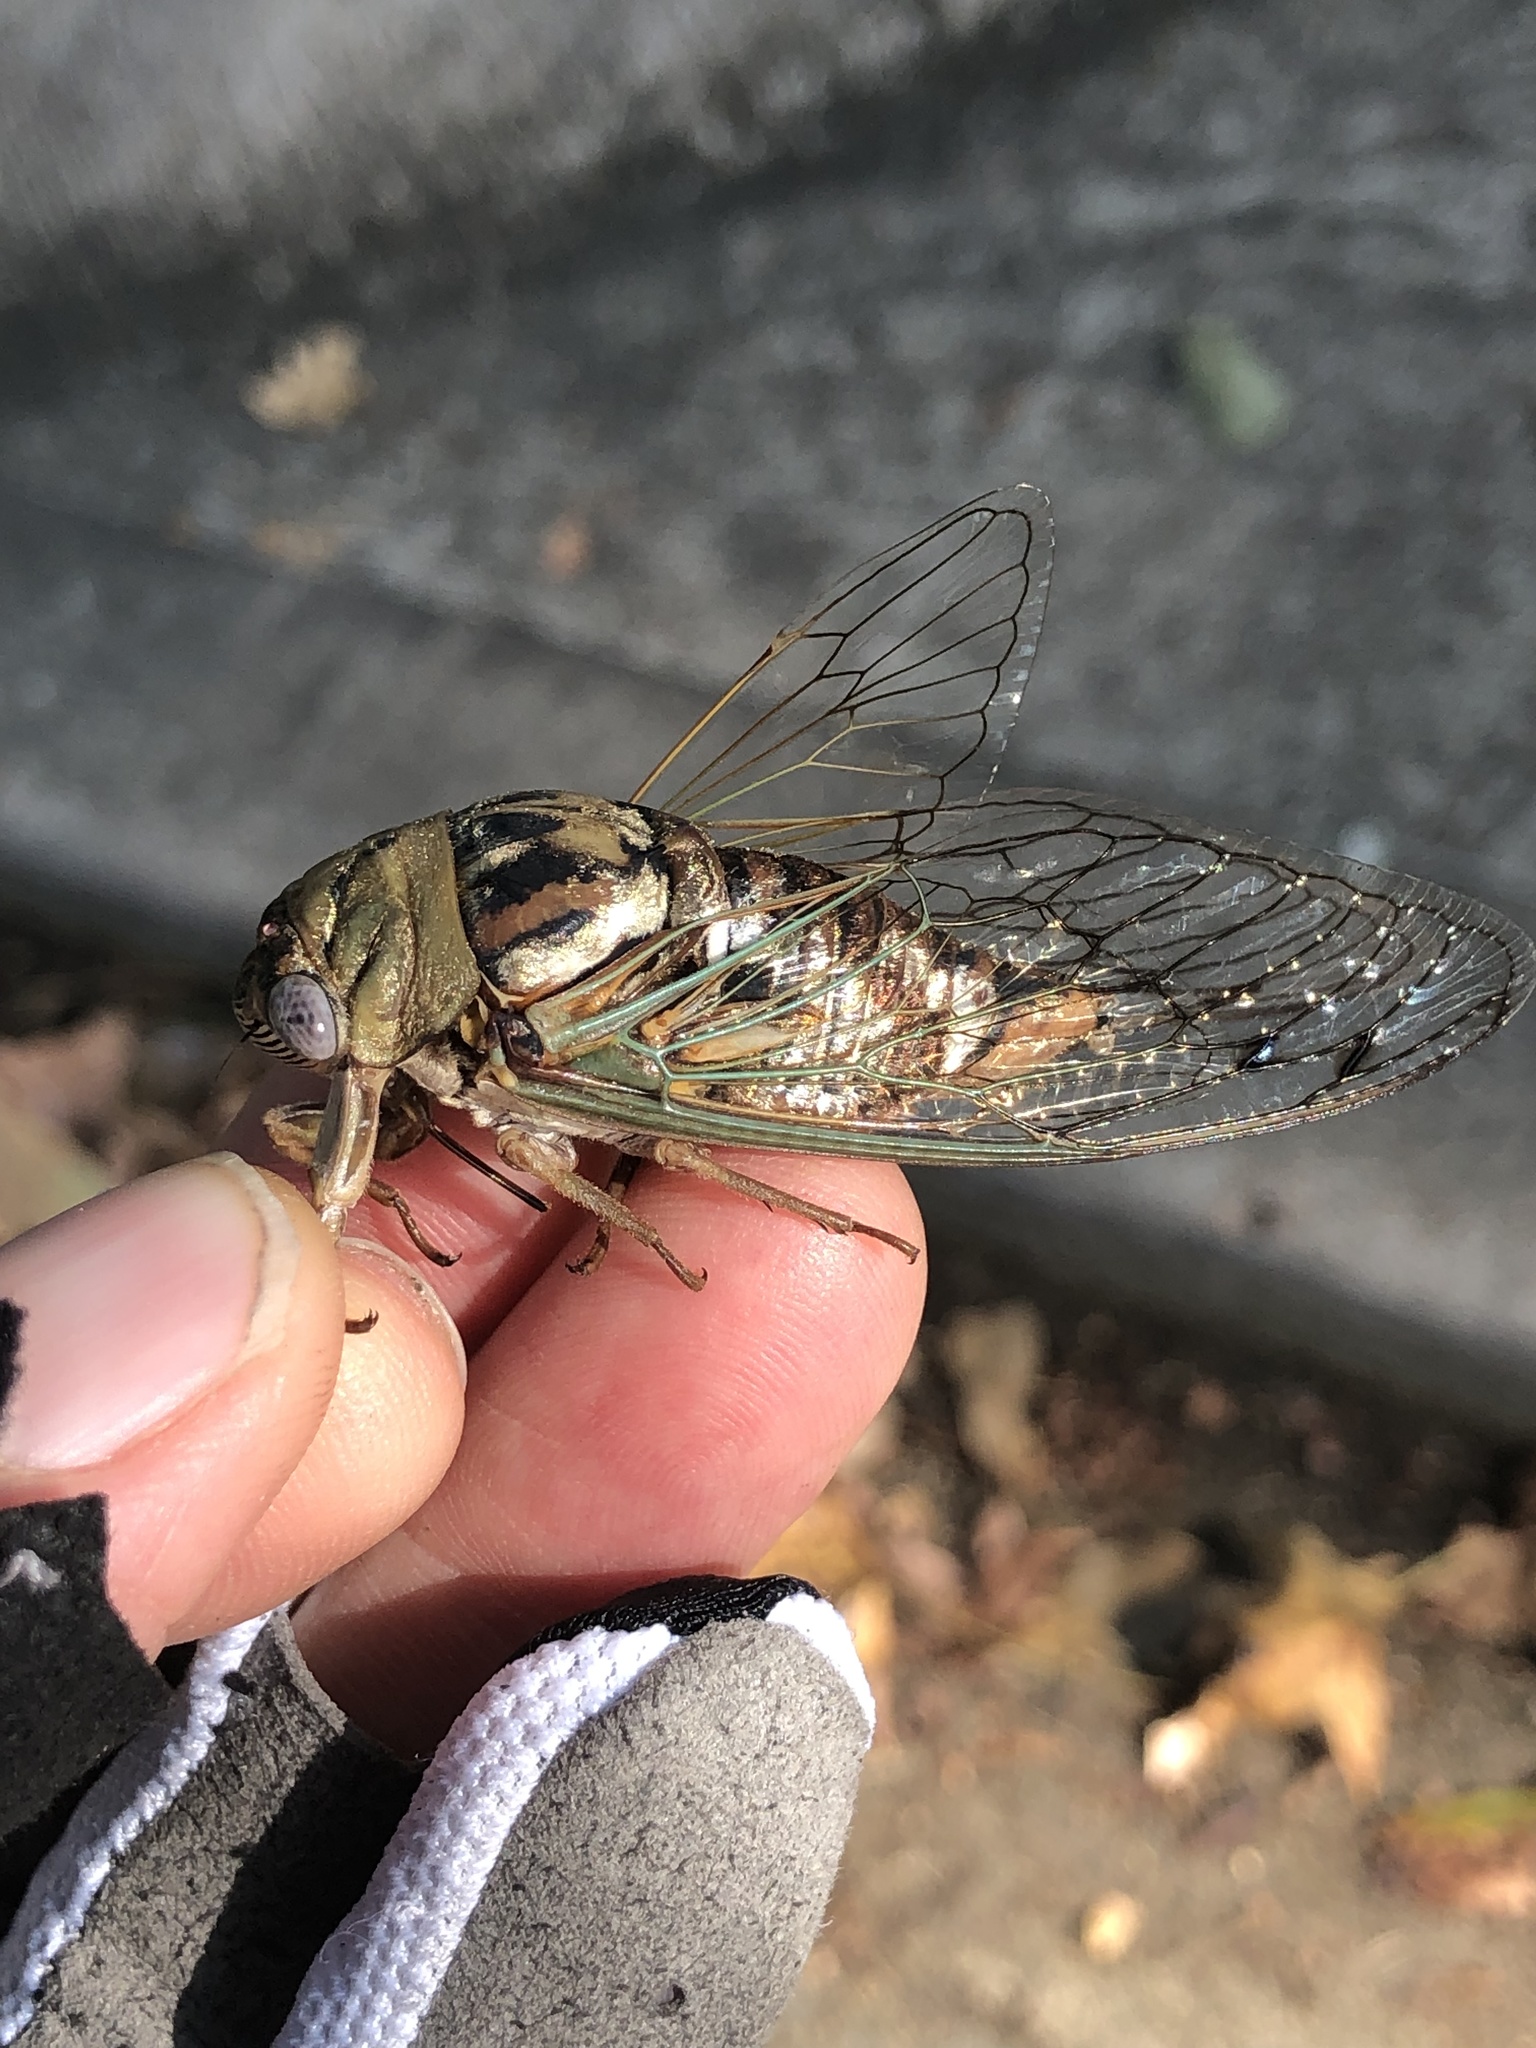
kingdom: Animalia
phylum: Arthropoda
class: Insecta
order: Hemiptera
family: Cicadidae
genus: Megatibicen
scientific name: Megatibicen resh
